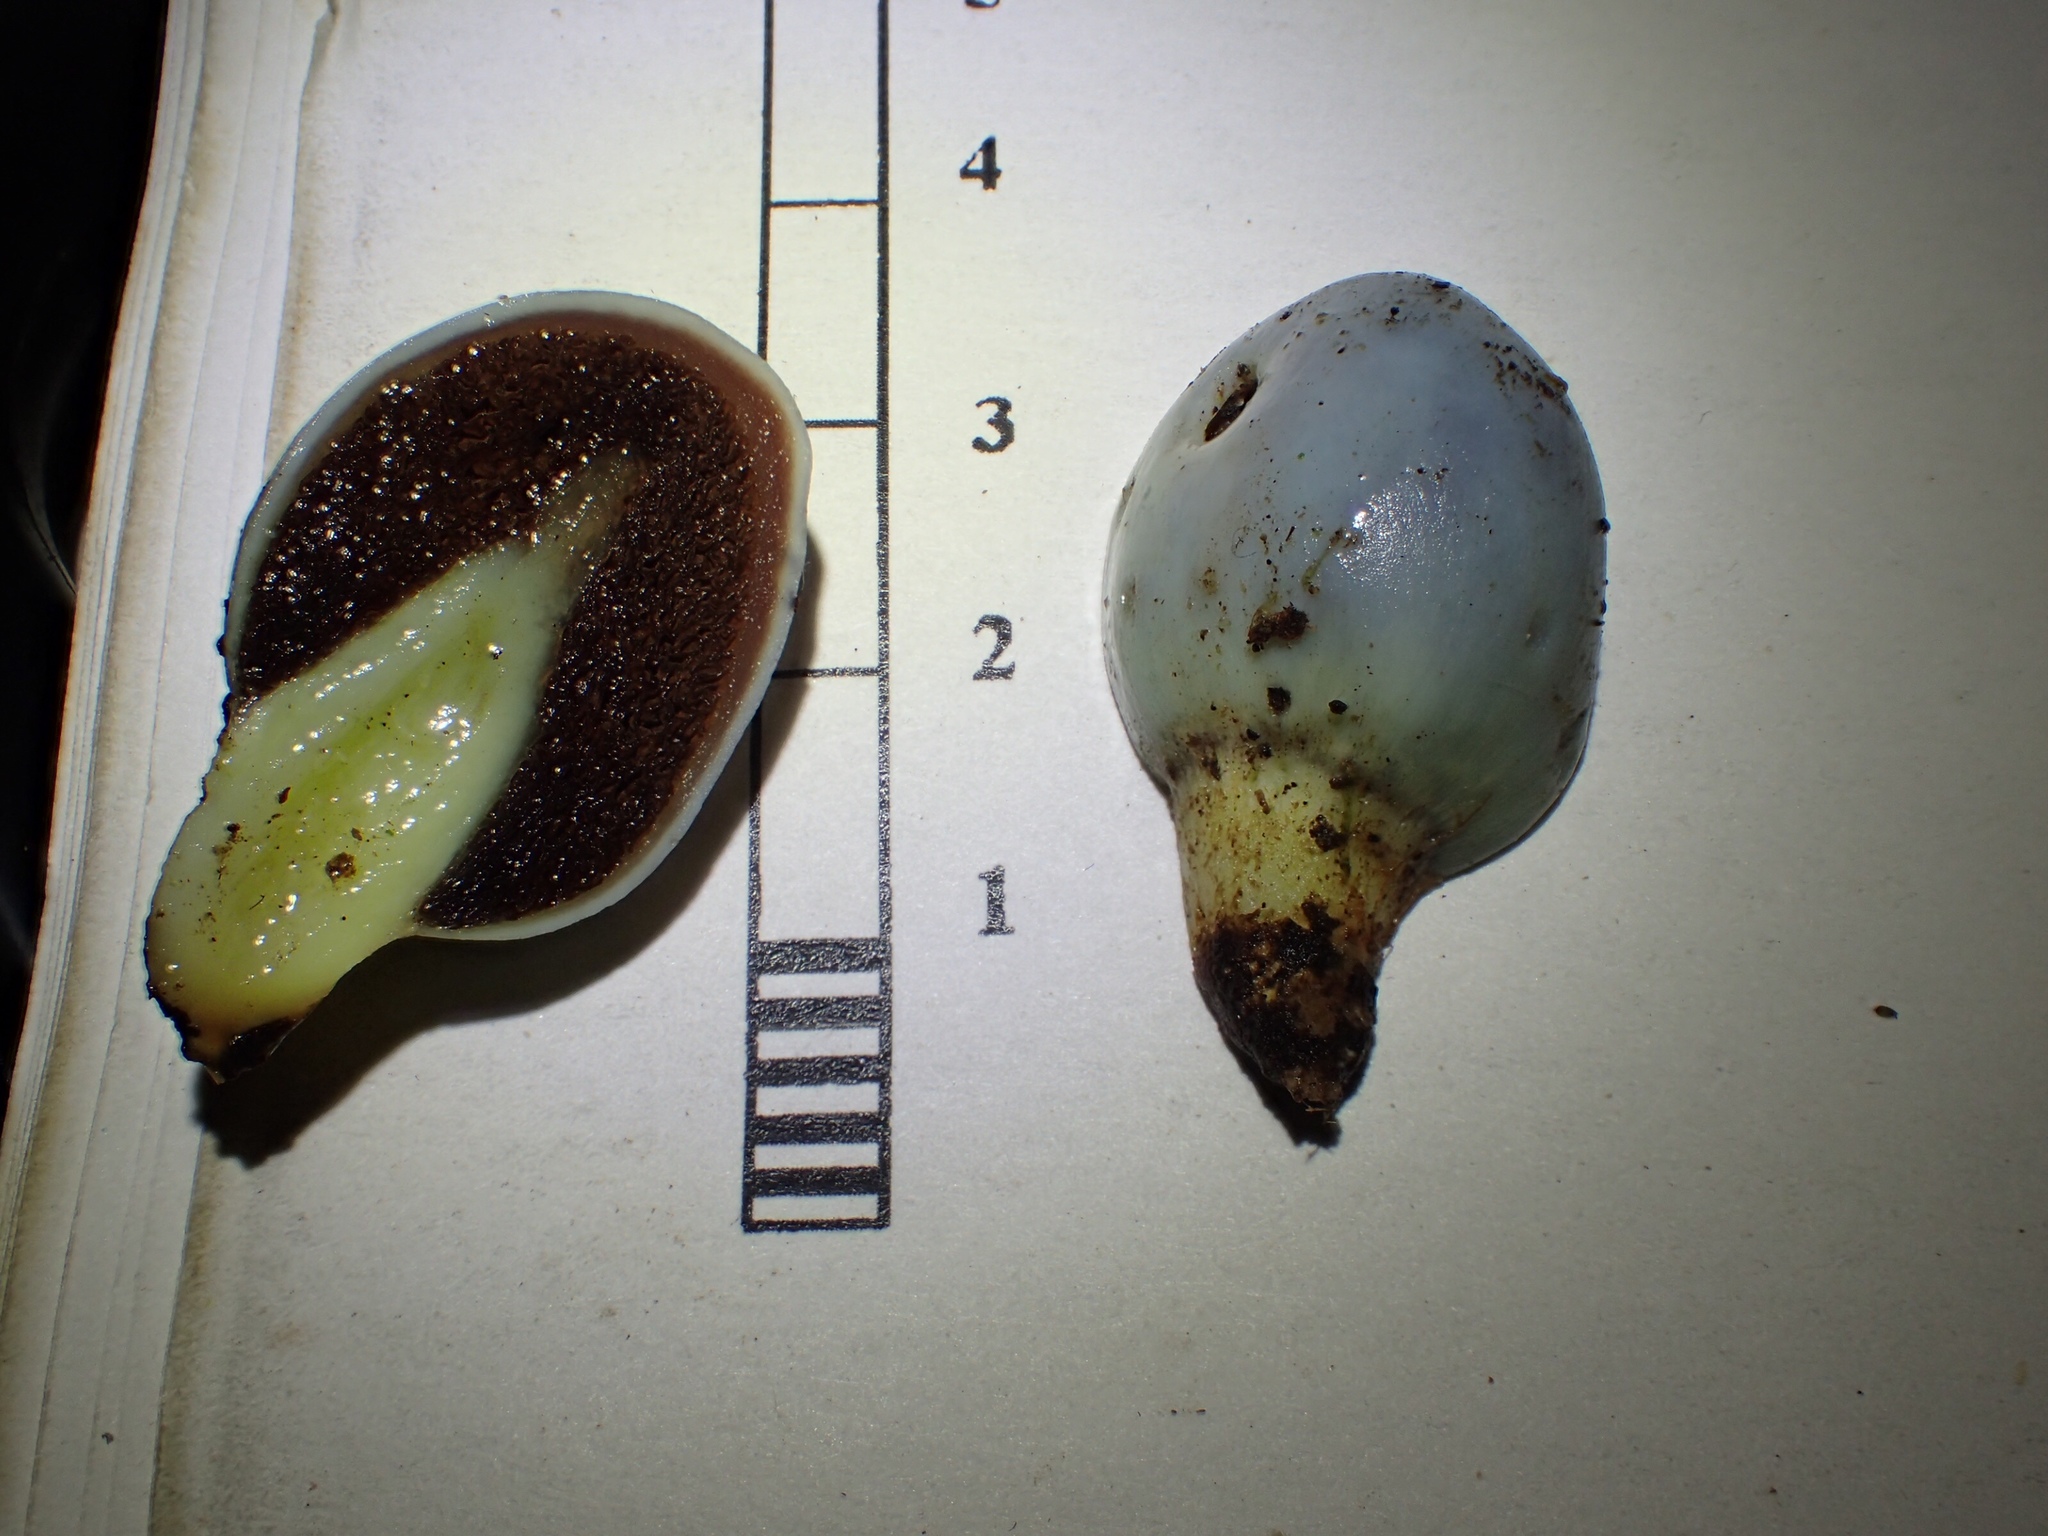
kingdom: Fungi
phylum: Basidiomycota
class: Agaricomycetes
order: Agaricales
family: Agaricaceae
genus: Clavogaster
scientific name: Clavogaster virescens
